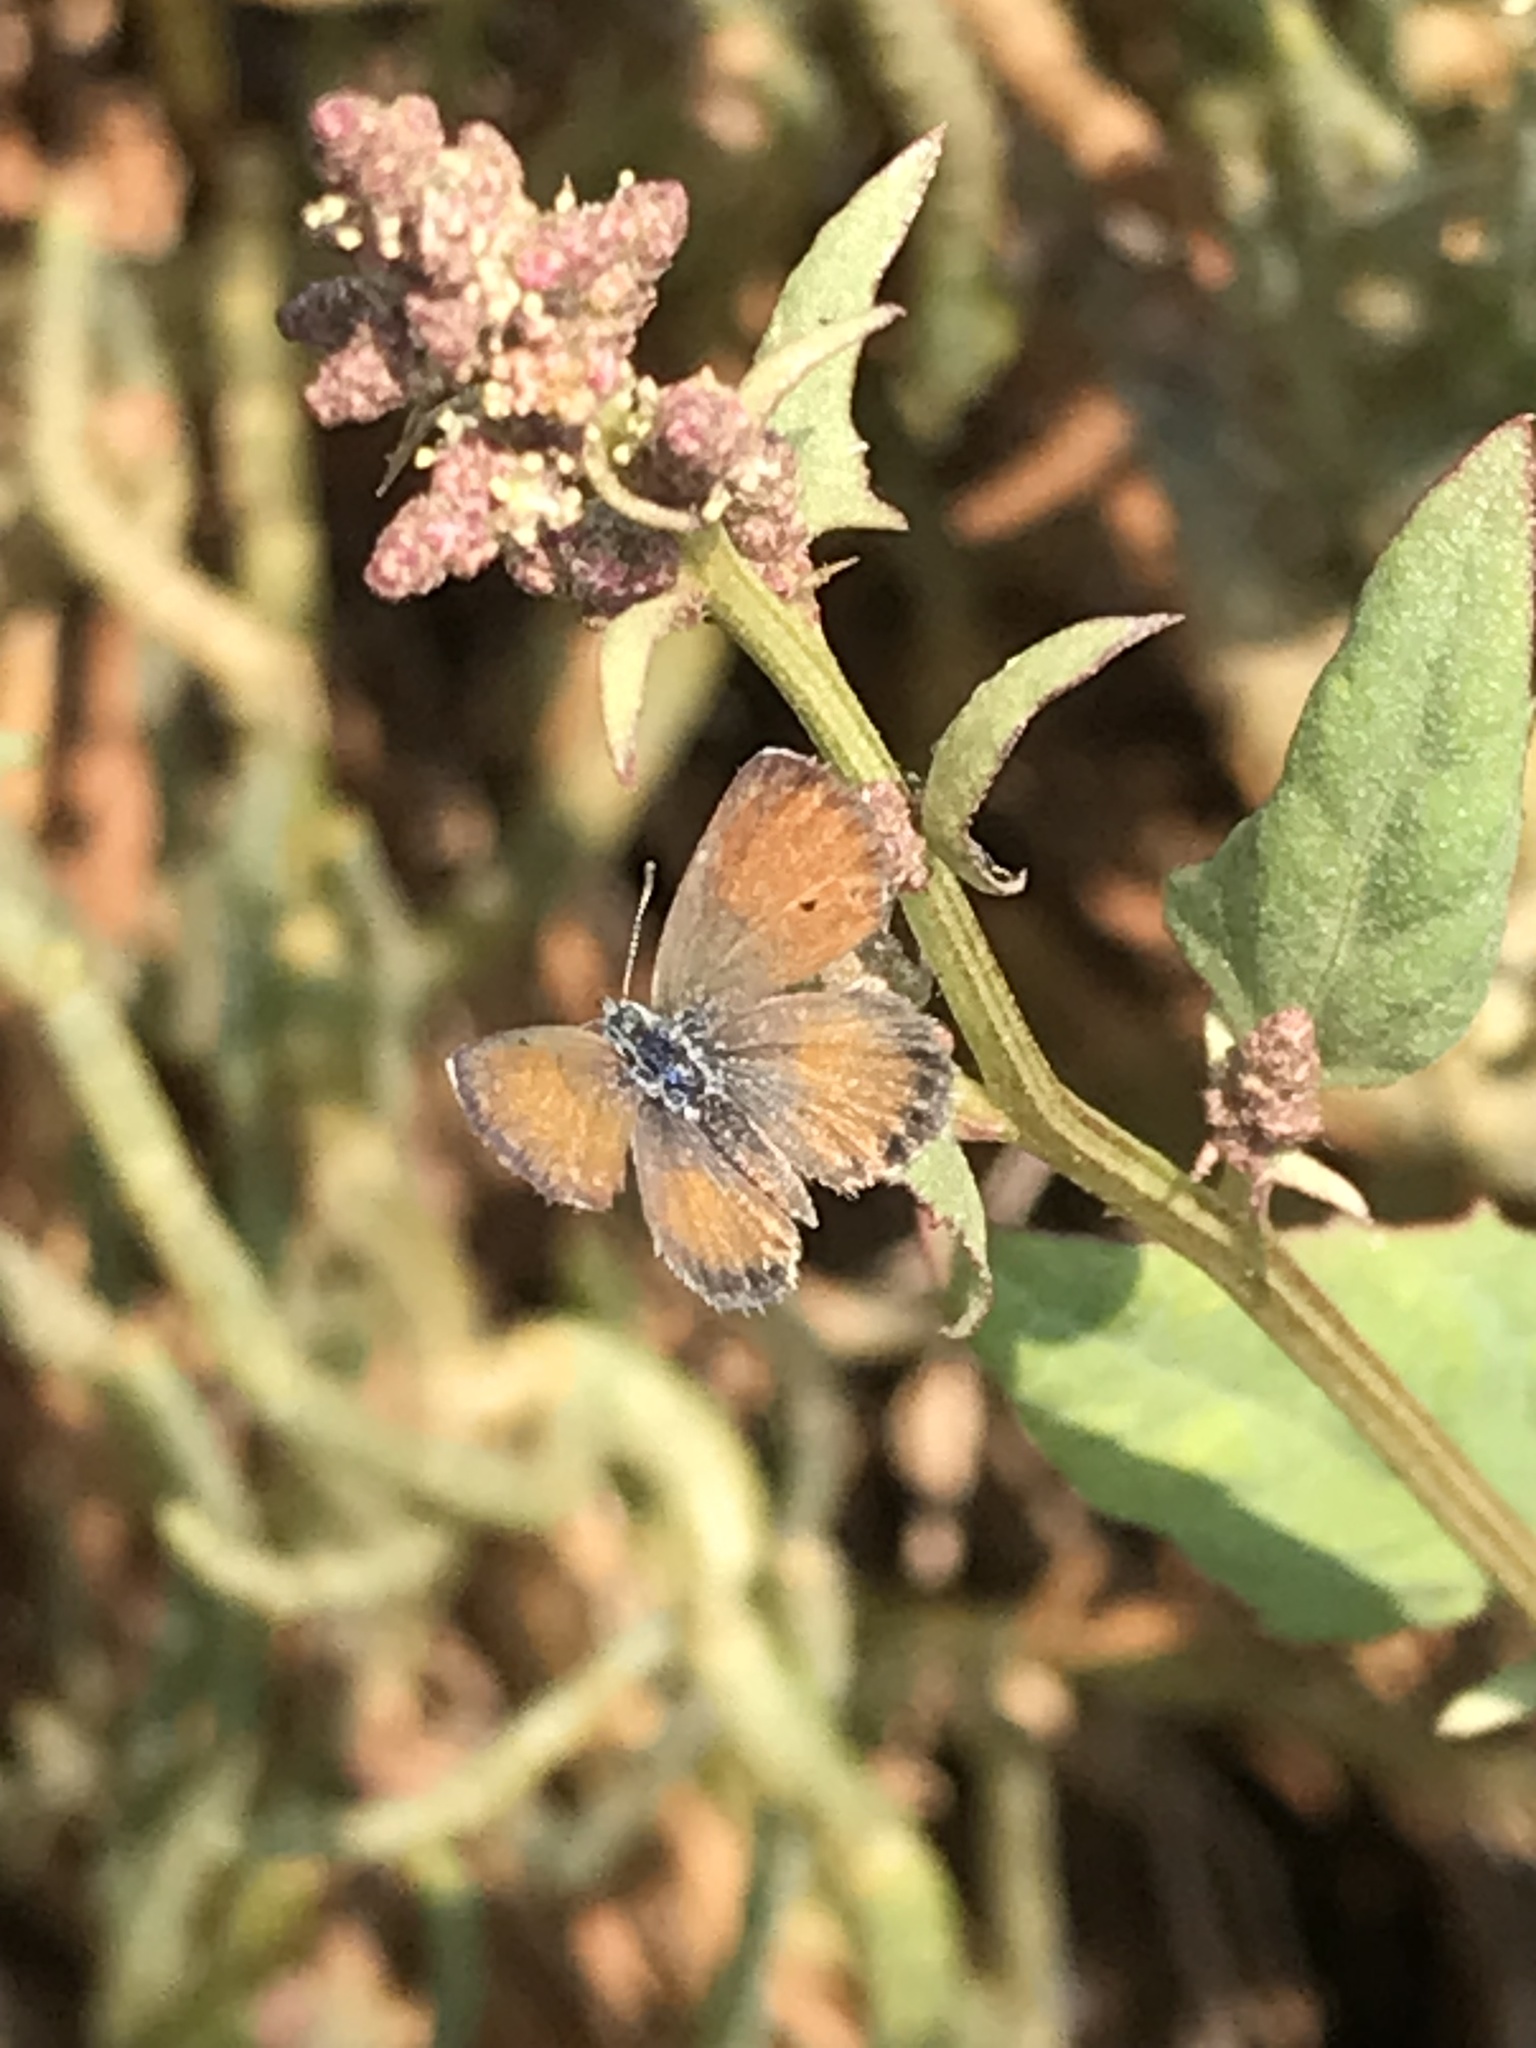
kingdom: Animalia
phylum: Arthropoda
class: Insecta
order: Lepidoptera
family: Lycaenidae
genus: Brephidium
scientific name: Brephidium exilis
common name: Pygmy blue
